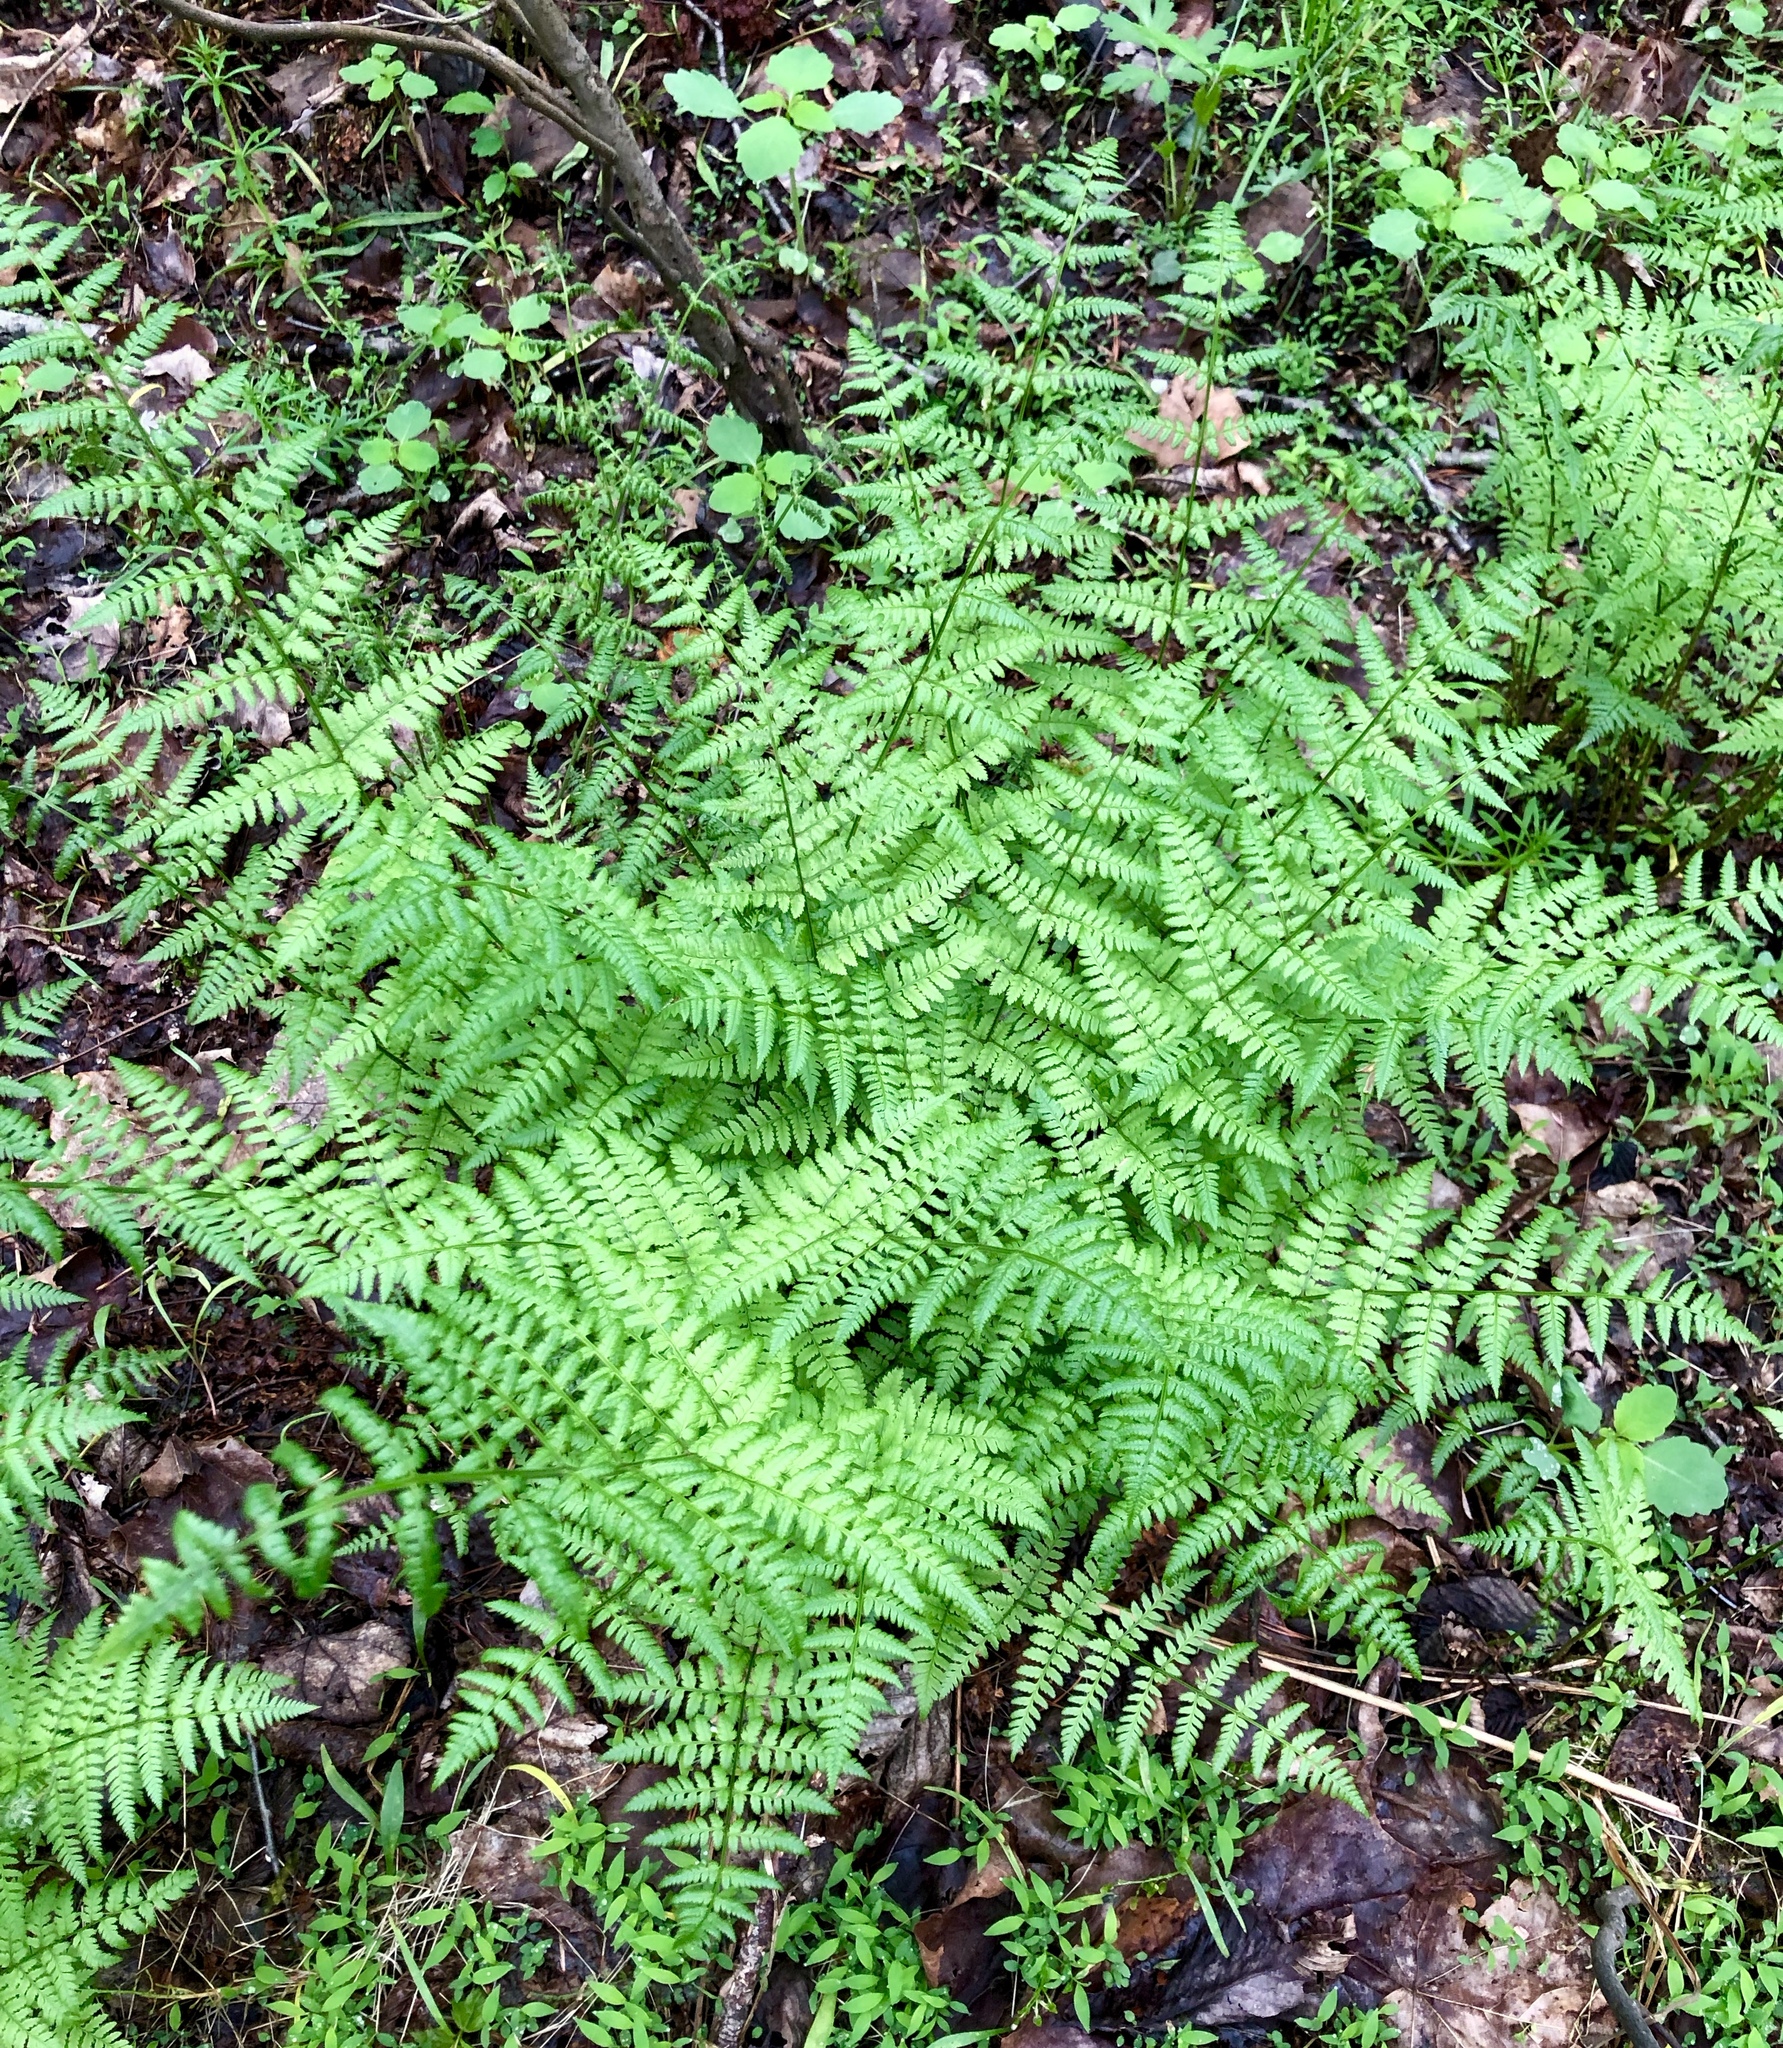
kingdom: Plantae
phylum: Tracheophyta
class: Polypodiopsida
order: Polypodiales
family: Dryopteridaceae
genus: Dryopteris
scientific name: Dryopteris intermedia
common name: Evergreen wood fern
